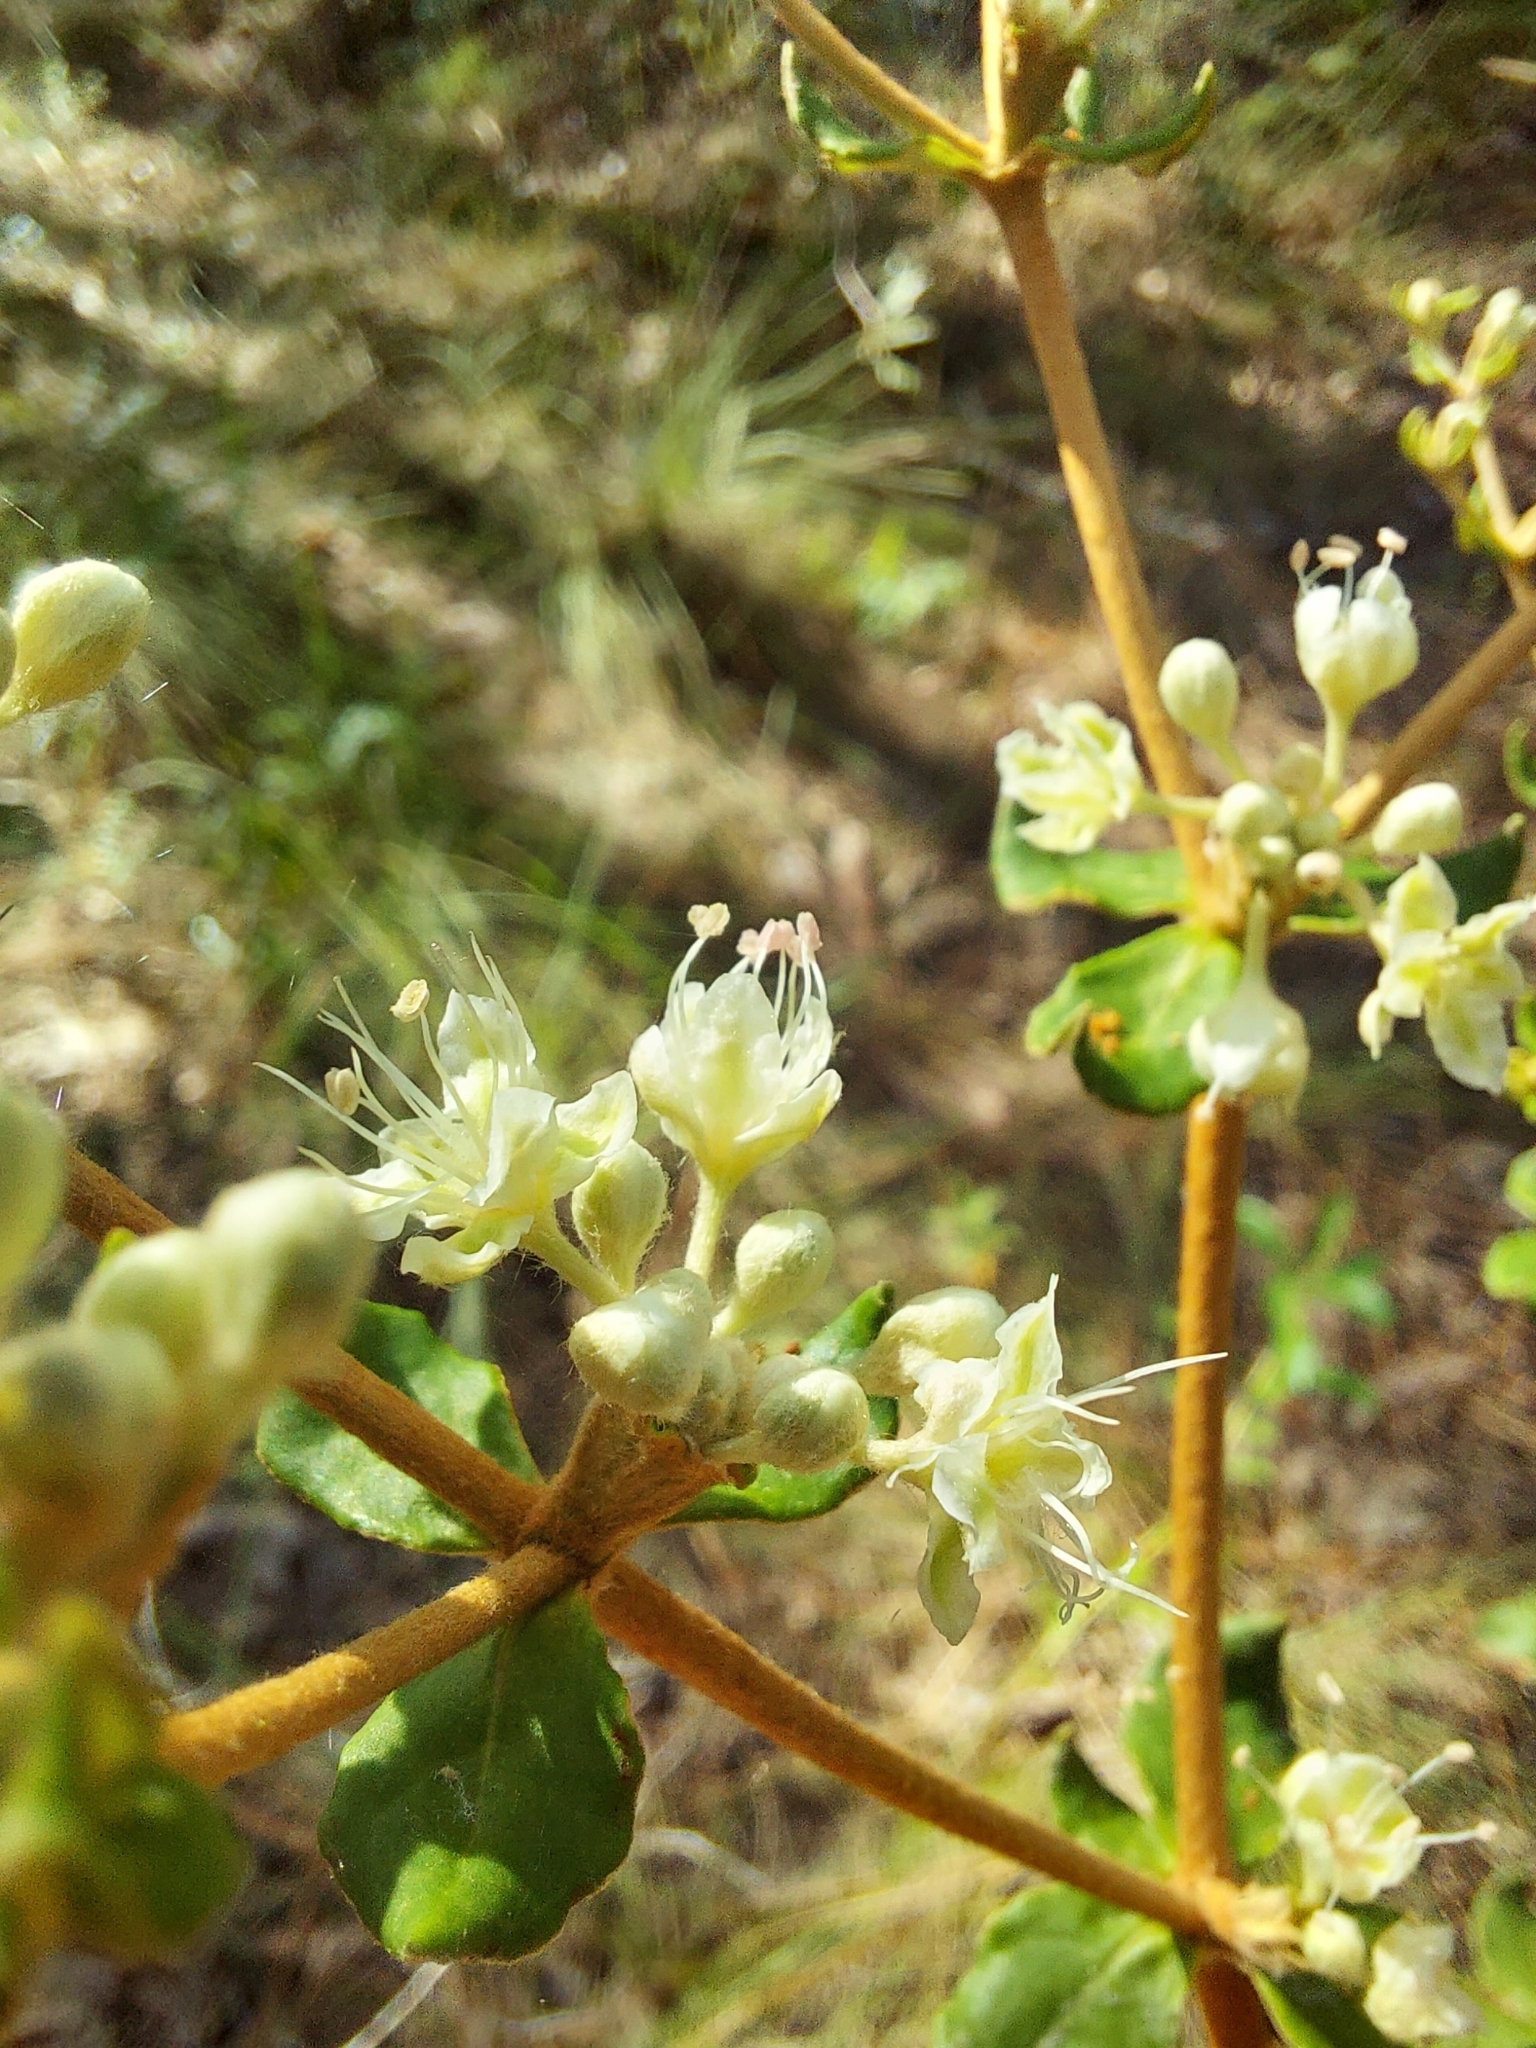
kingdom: Plantae
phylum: Tracheophyta
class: Magnoliopsida
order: Caryophyllales
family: Polygonaceae
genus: Eriogonum
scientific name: Eriogonum tomentosum
